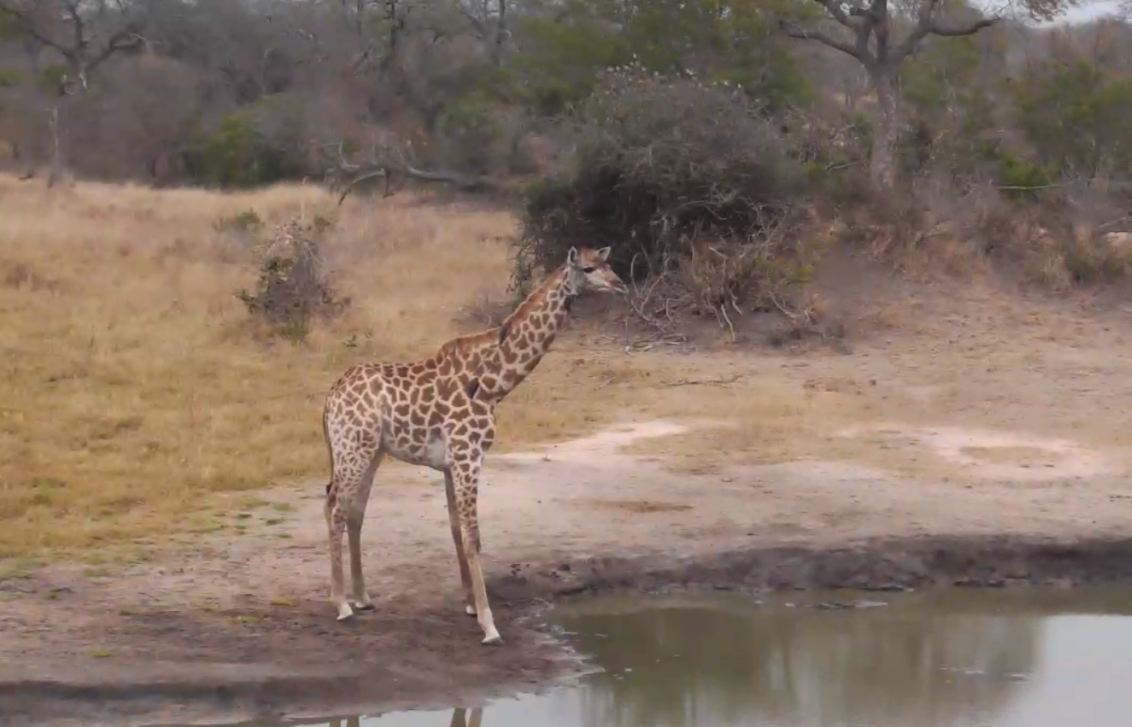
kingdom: Animalia
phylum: Chordata
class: Mammalia
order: Artiodactyla
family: Giraffidae
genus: Giraffa
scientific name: Giraffa giraffa
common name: Southern giraffe
